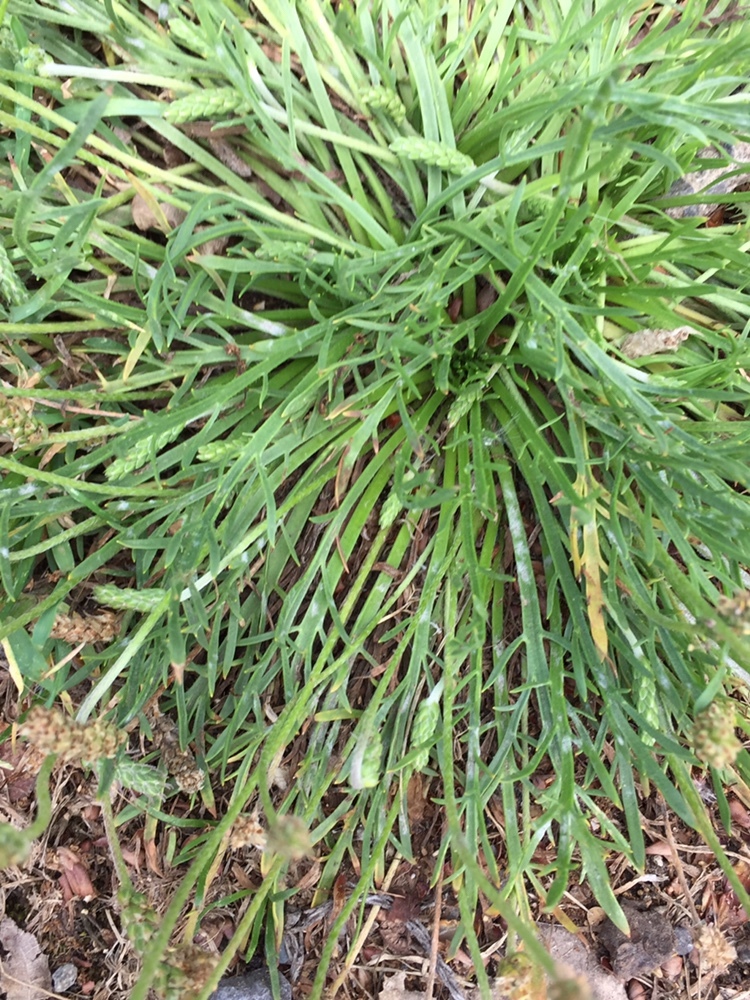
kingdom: Plantae
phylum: Tracheophyta
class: Magnoliopsida
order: Lamiales
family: Plantaginaceae
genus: Plantago
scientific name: Plantago coronopus
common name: Buck's-horn plantain
